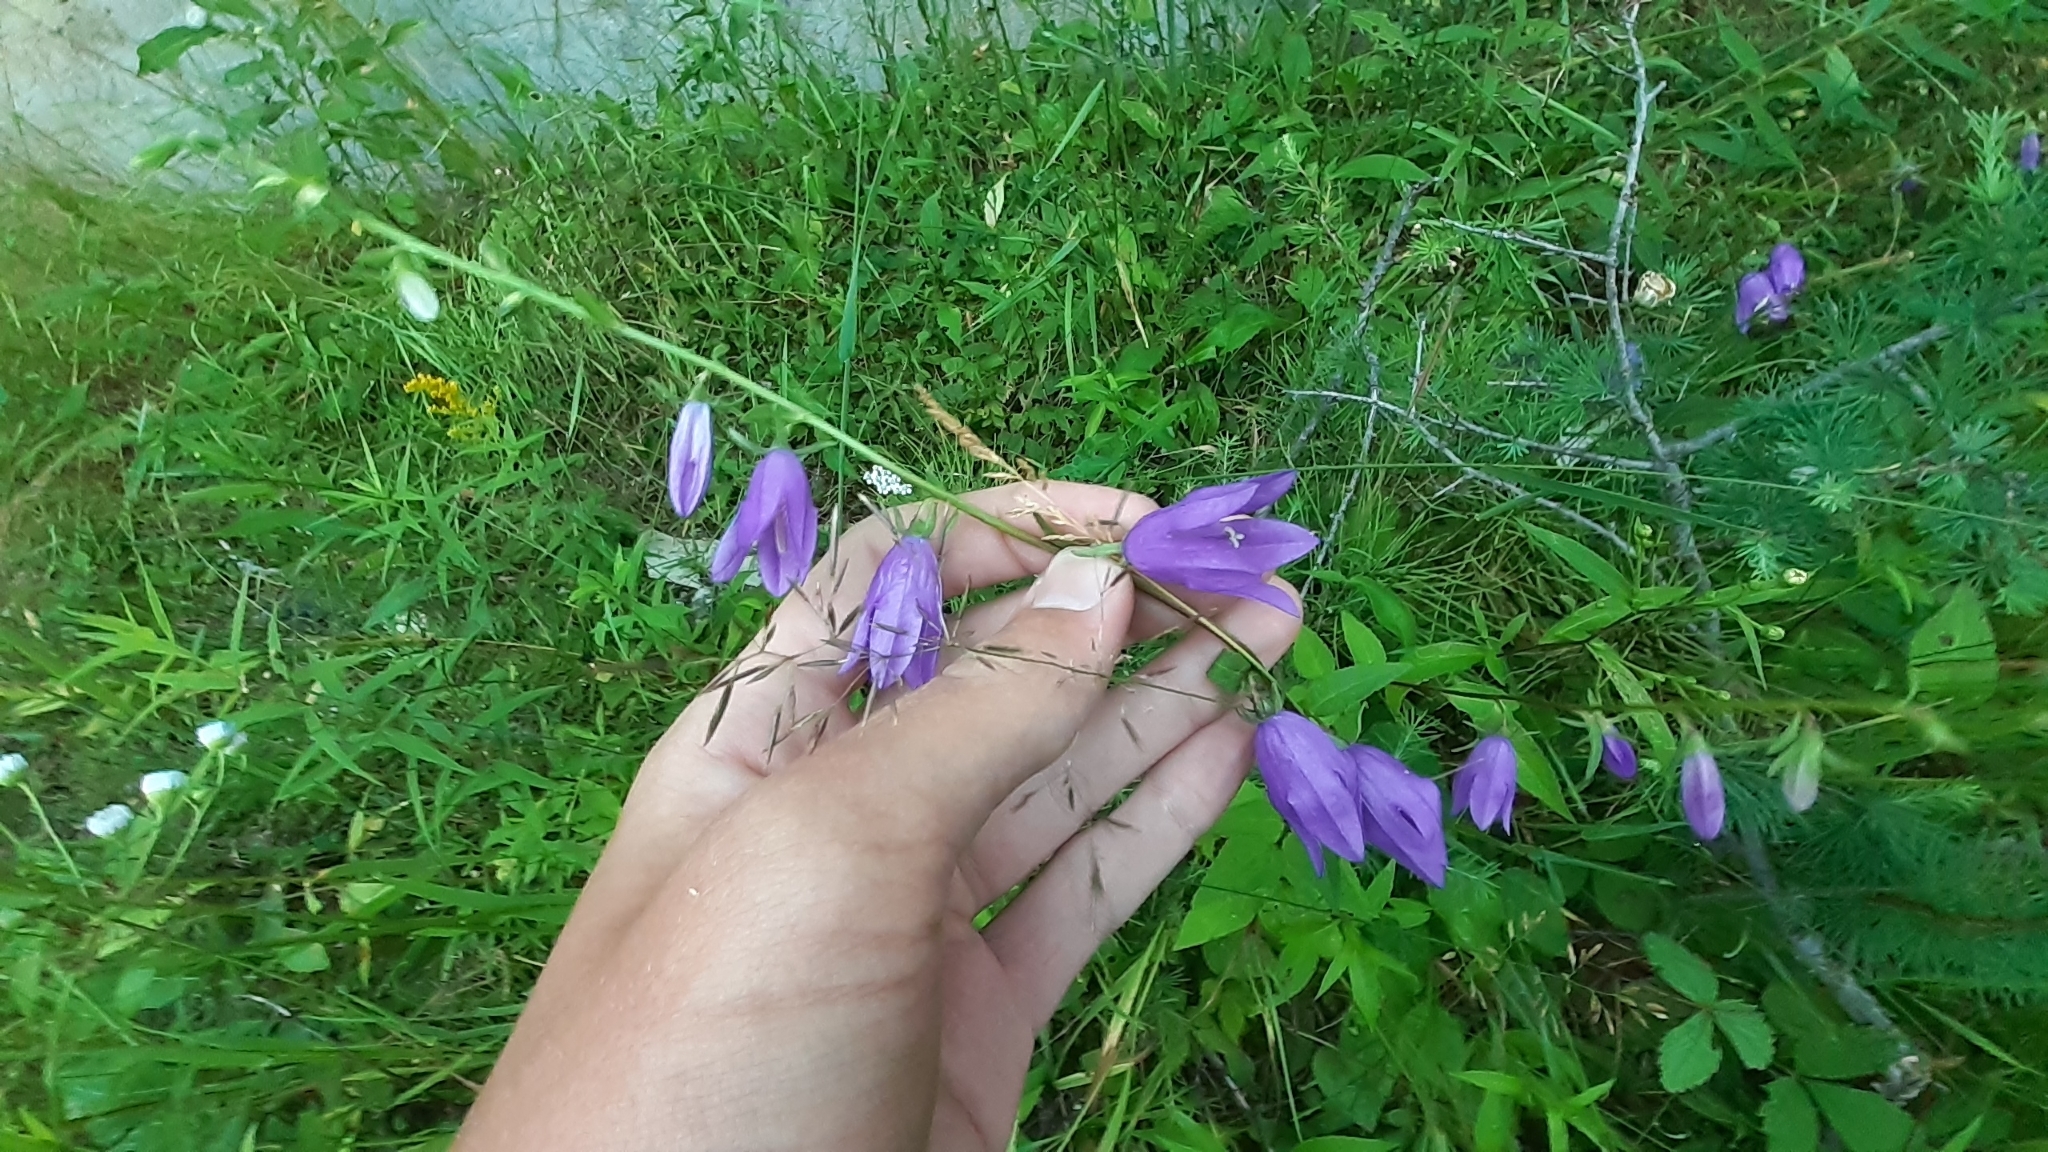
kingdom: Plantae
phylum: Tracheophyta
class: Magnoliopsida
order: Asterales
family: Campanulaceae
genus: Campanula
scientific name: Campanula rapunculoides
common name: Creeping bellflower
